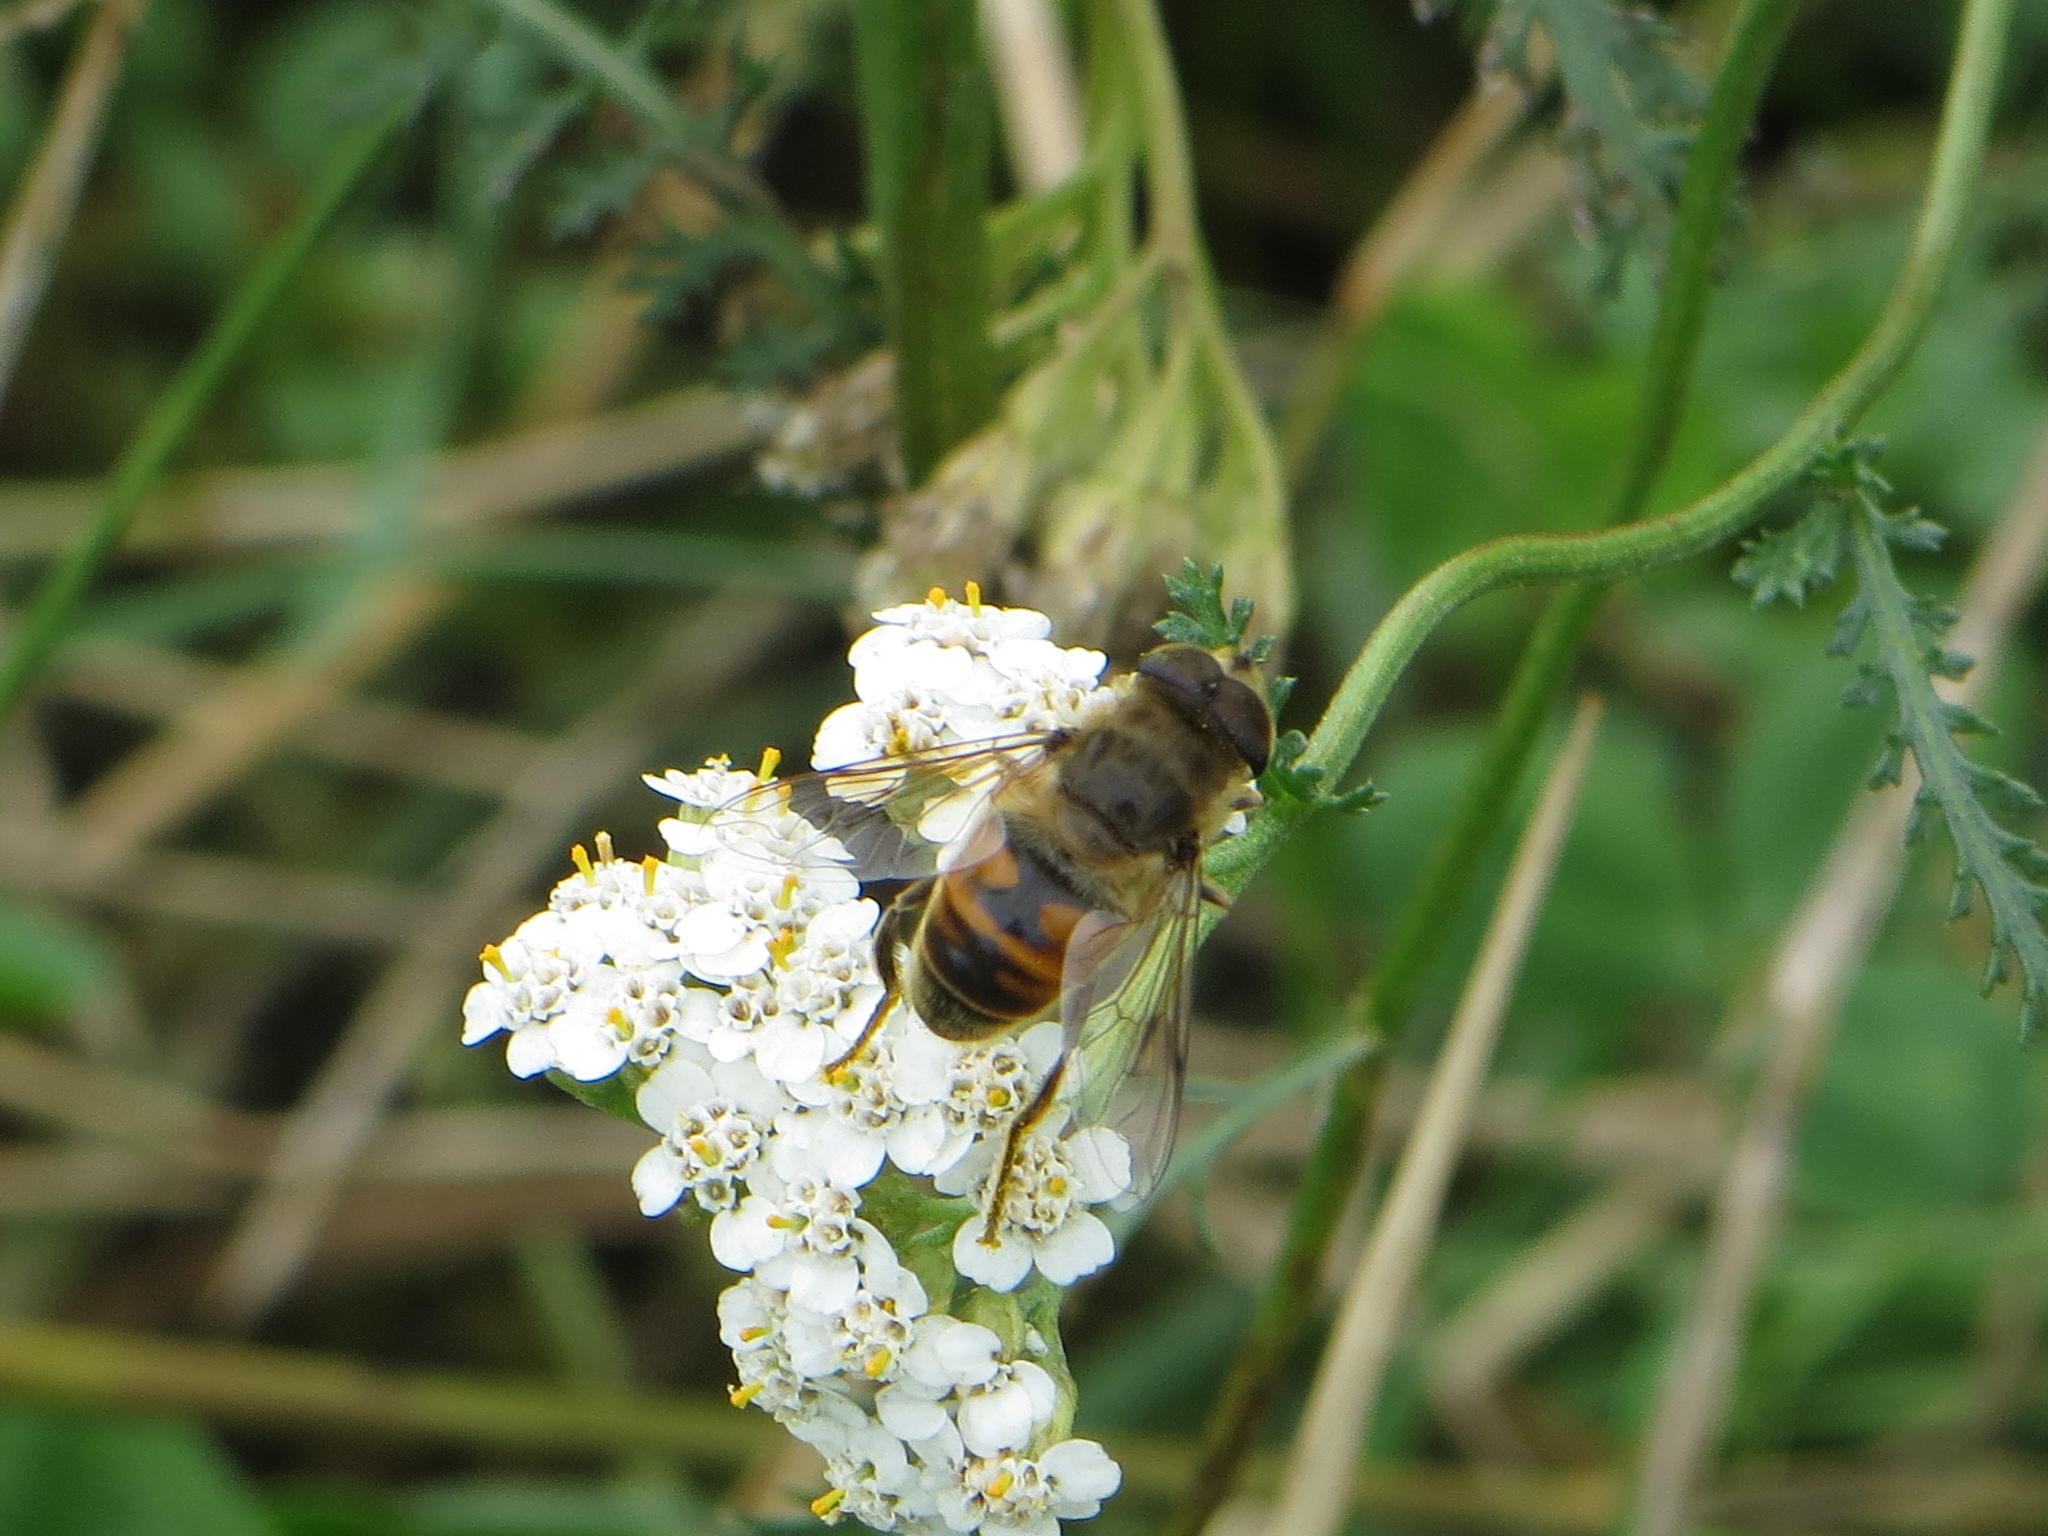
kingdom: Animalia
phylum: Arthropoda
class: Insecta
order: Diptera
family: Syrphidae
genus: Eristalis
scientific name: Eristalis tenax
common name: Drone fly
